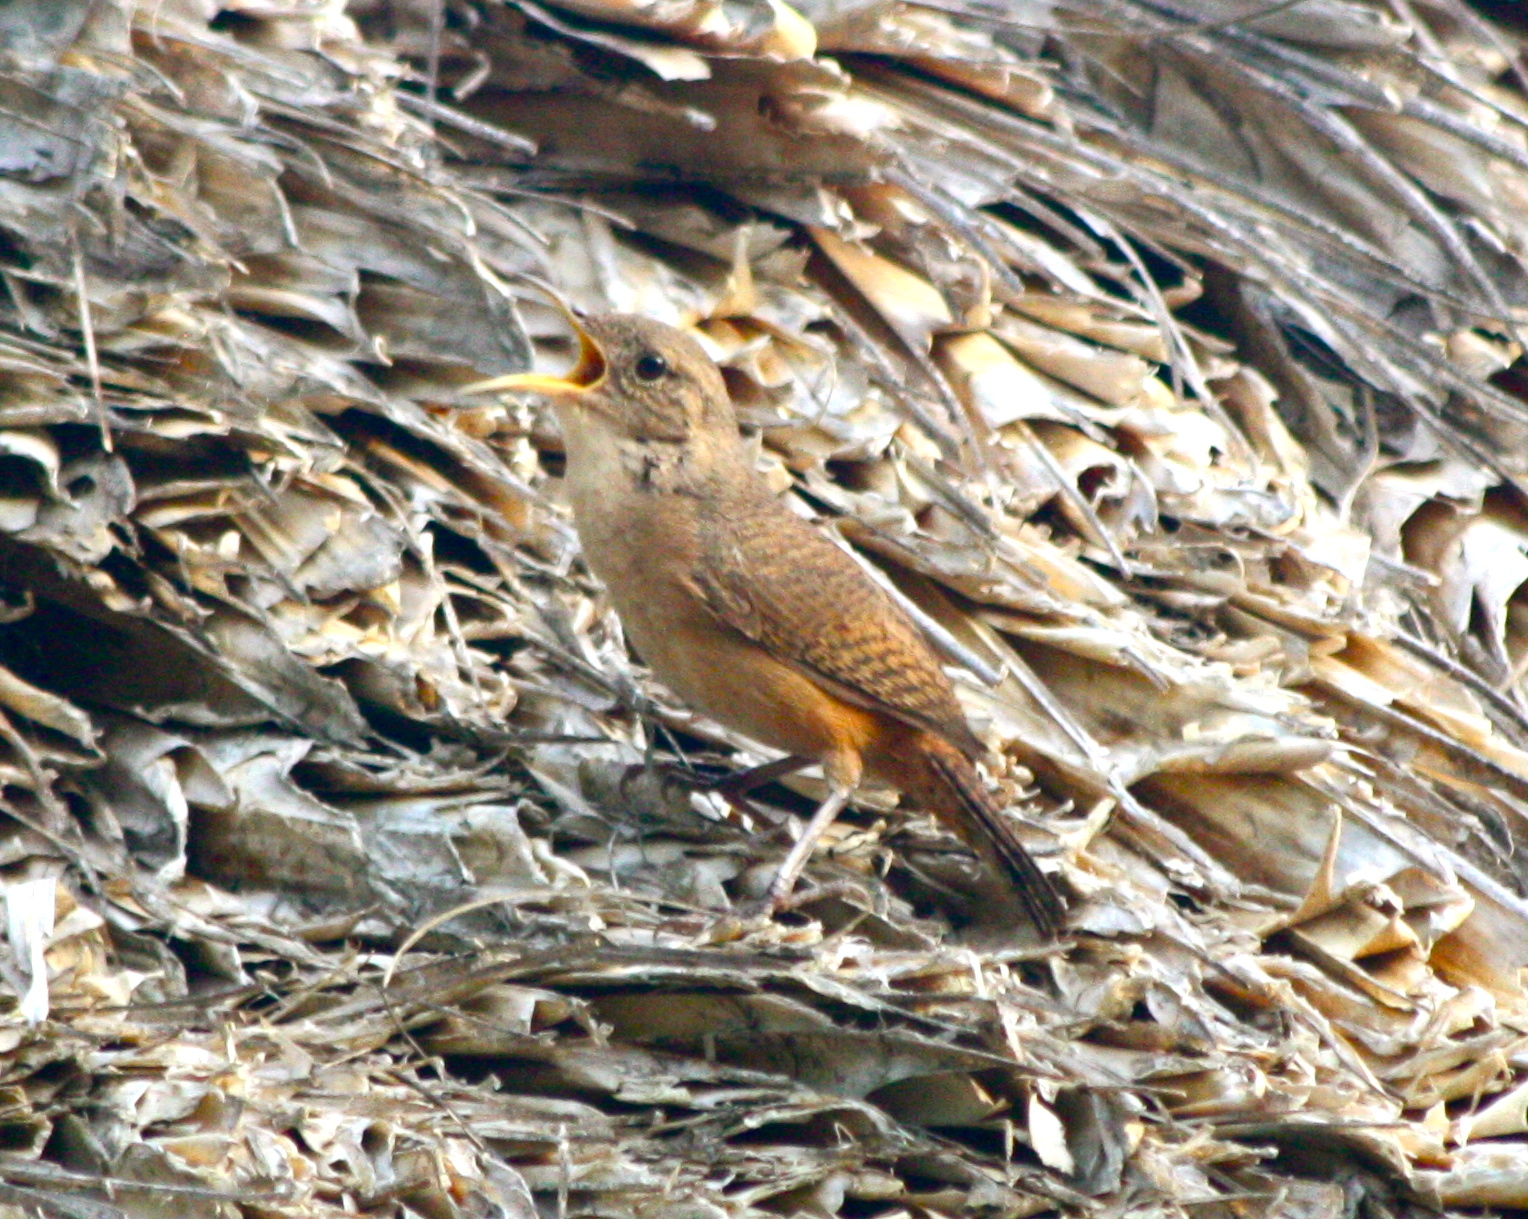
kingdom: Animalia
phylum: Chordata
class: Aves
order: Passeriformes
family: Troglodytidae
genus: Troglodytes
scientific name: Troglodytes aedon
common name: House wren
